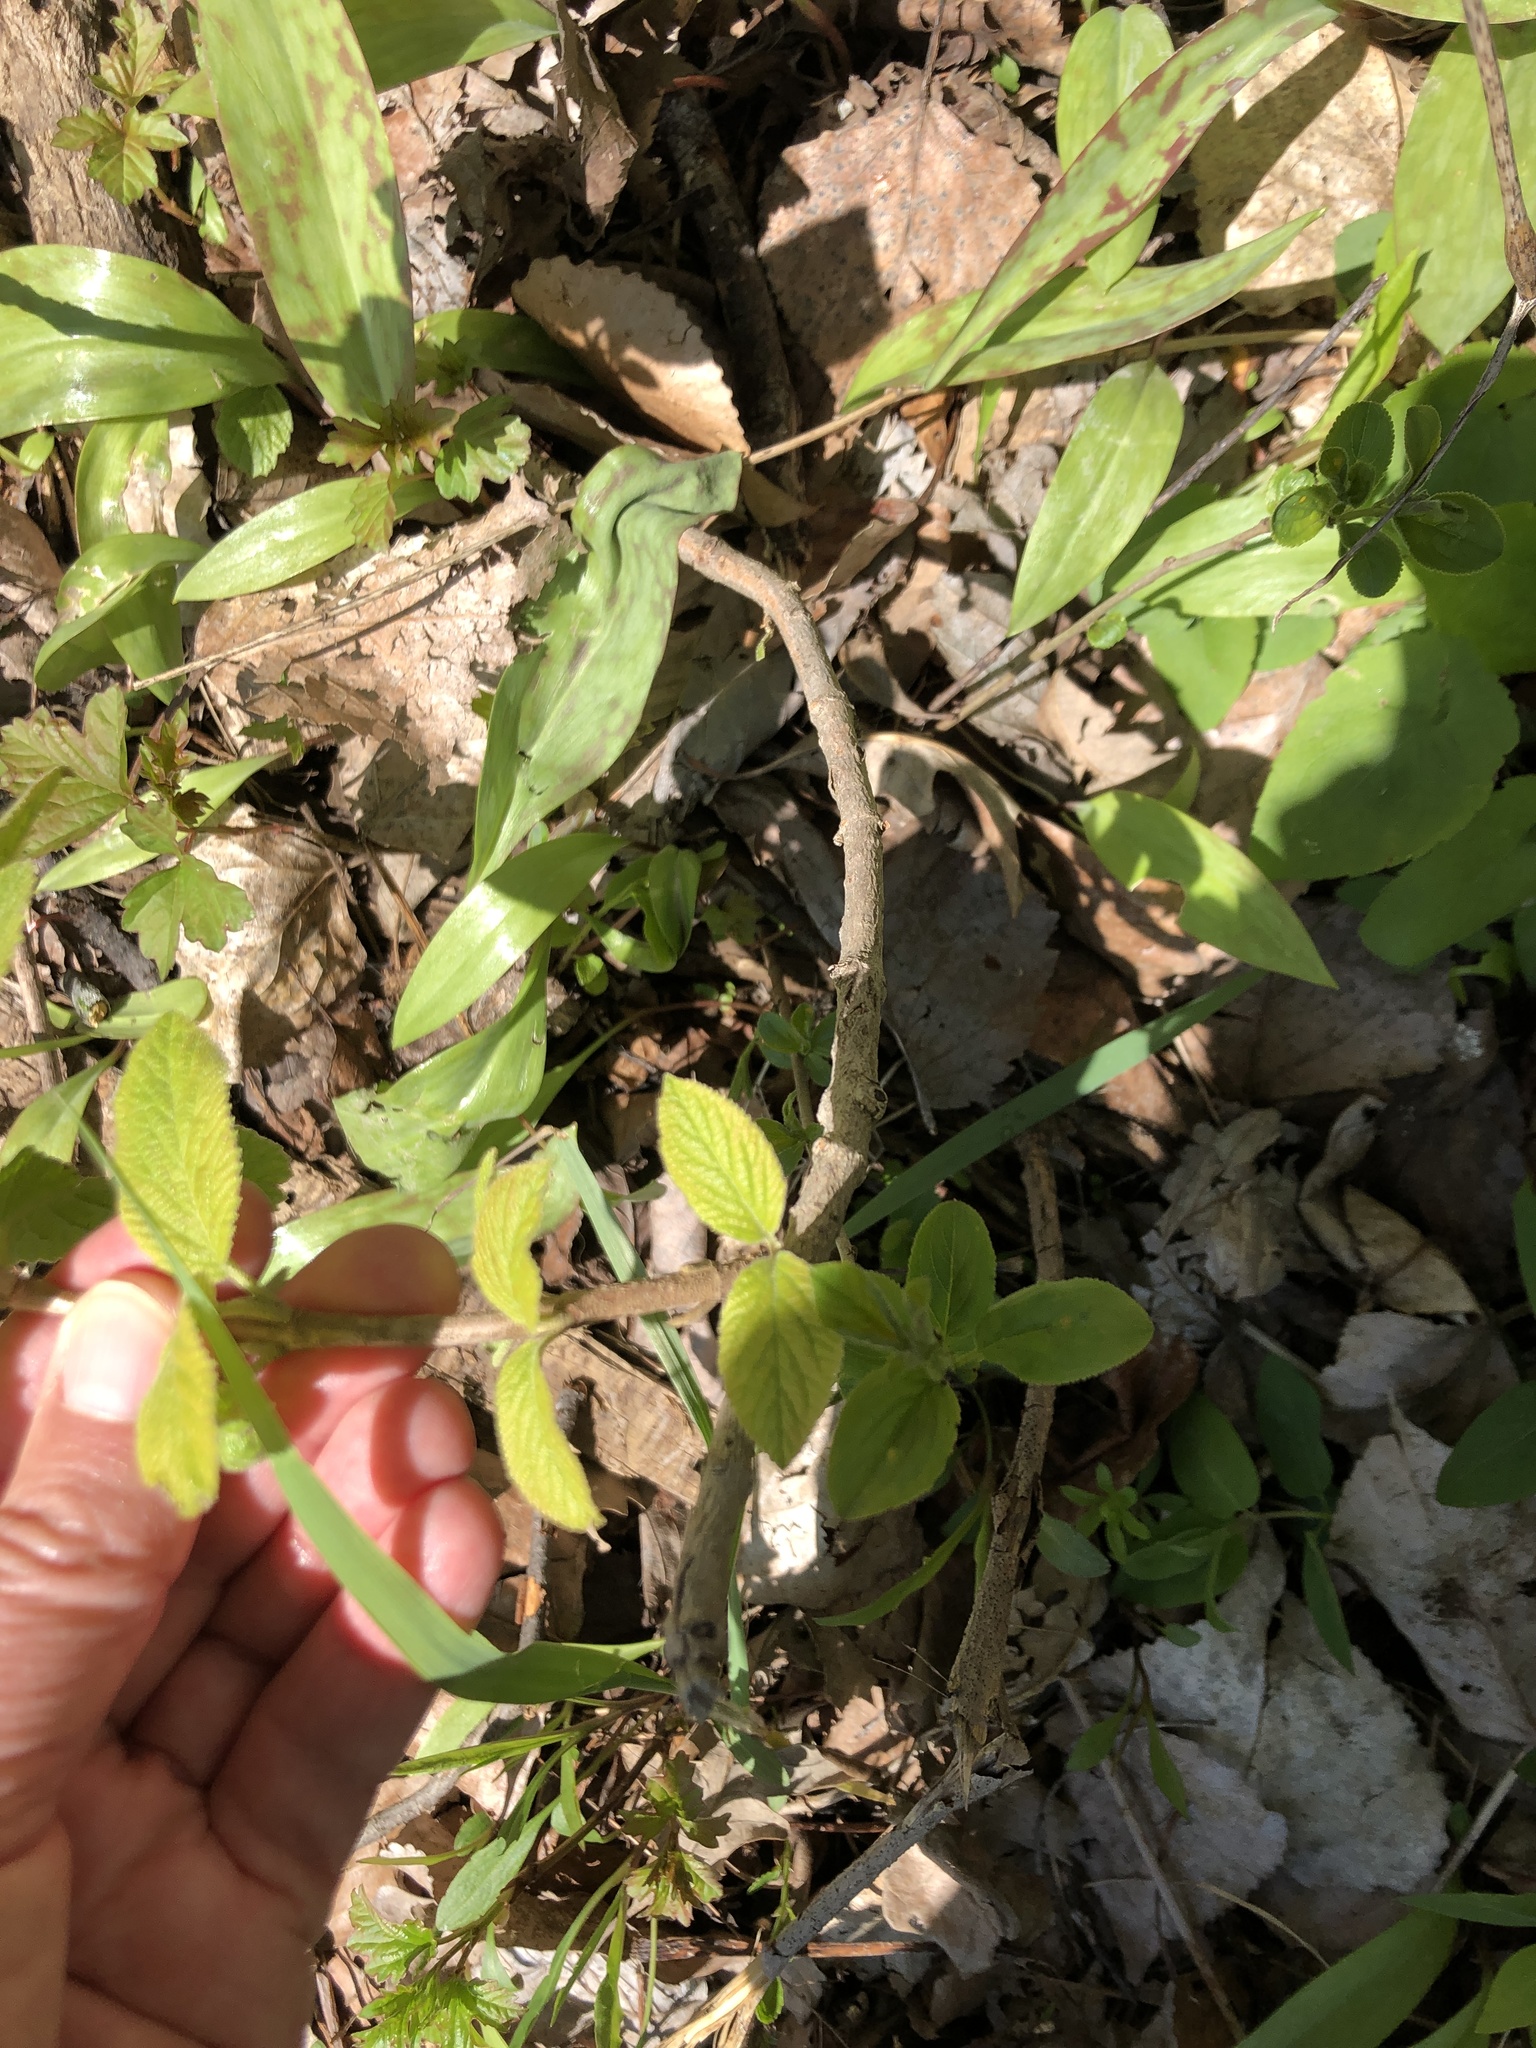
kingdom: Plantae
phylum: Tracheophyta
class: Magnoliopsida
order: Dipsacales
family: Viburnaceae
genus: Viburnum
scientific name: Viburnum lantana
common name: Wayfaring tree
